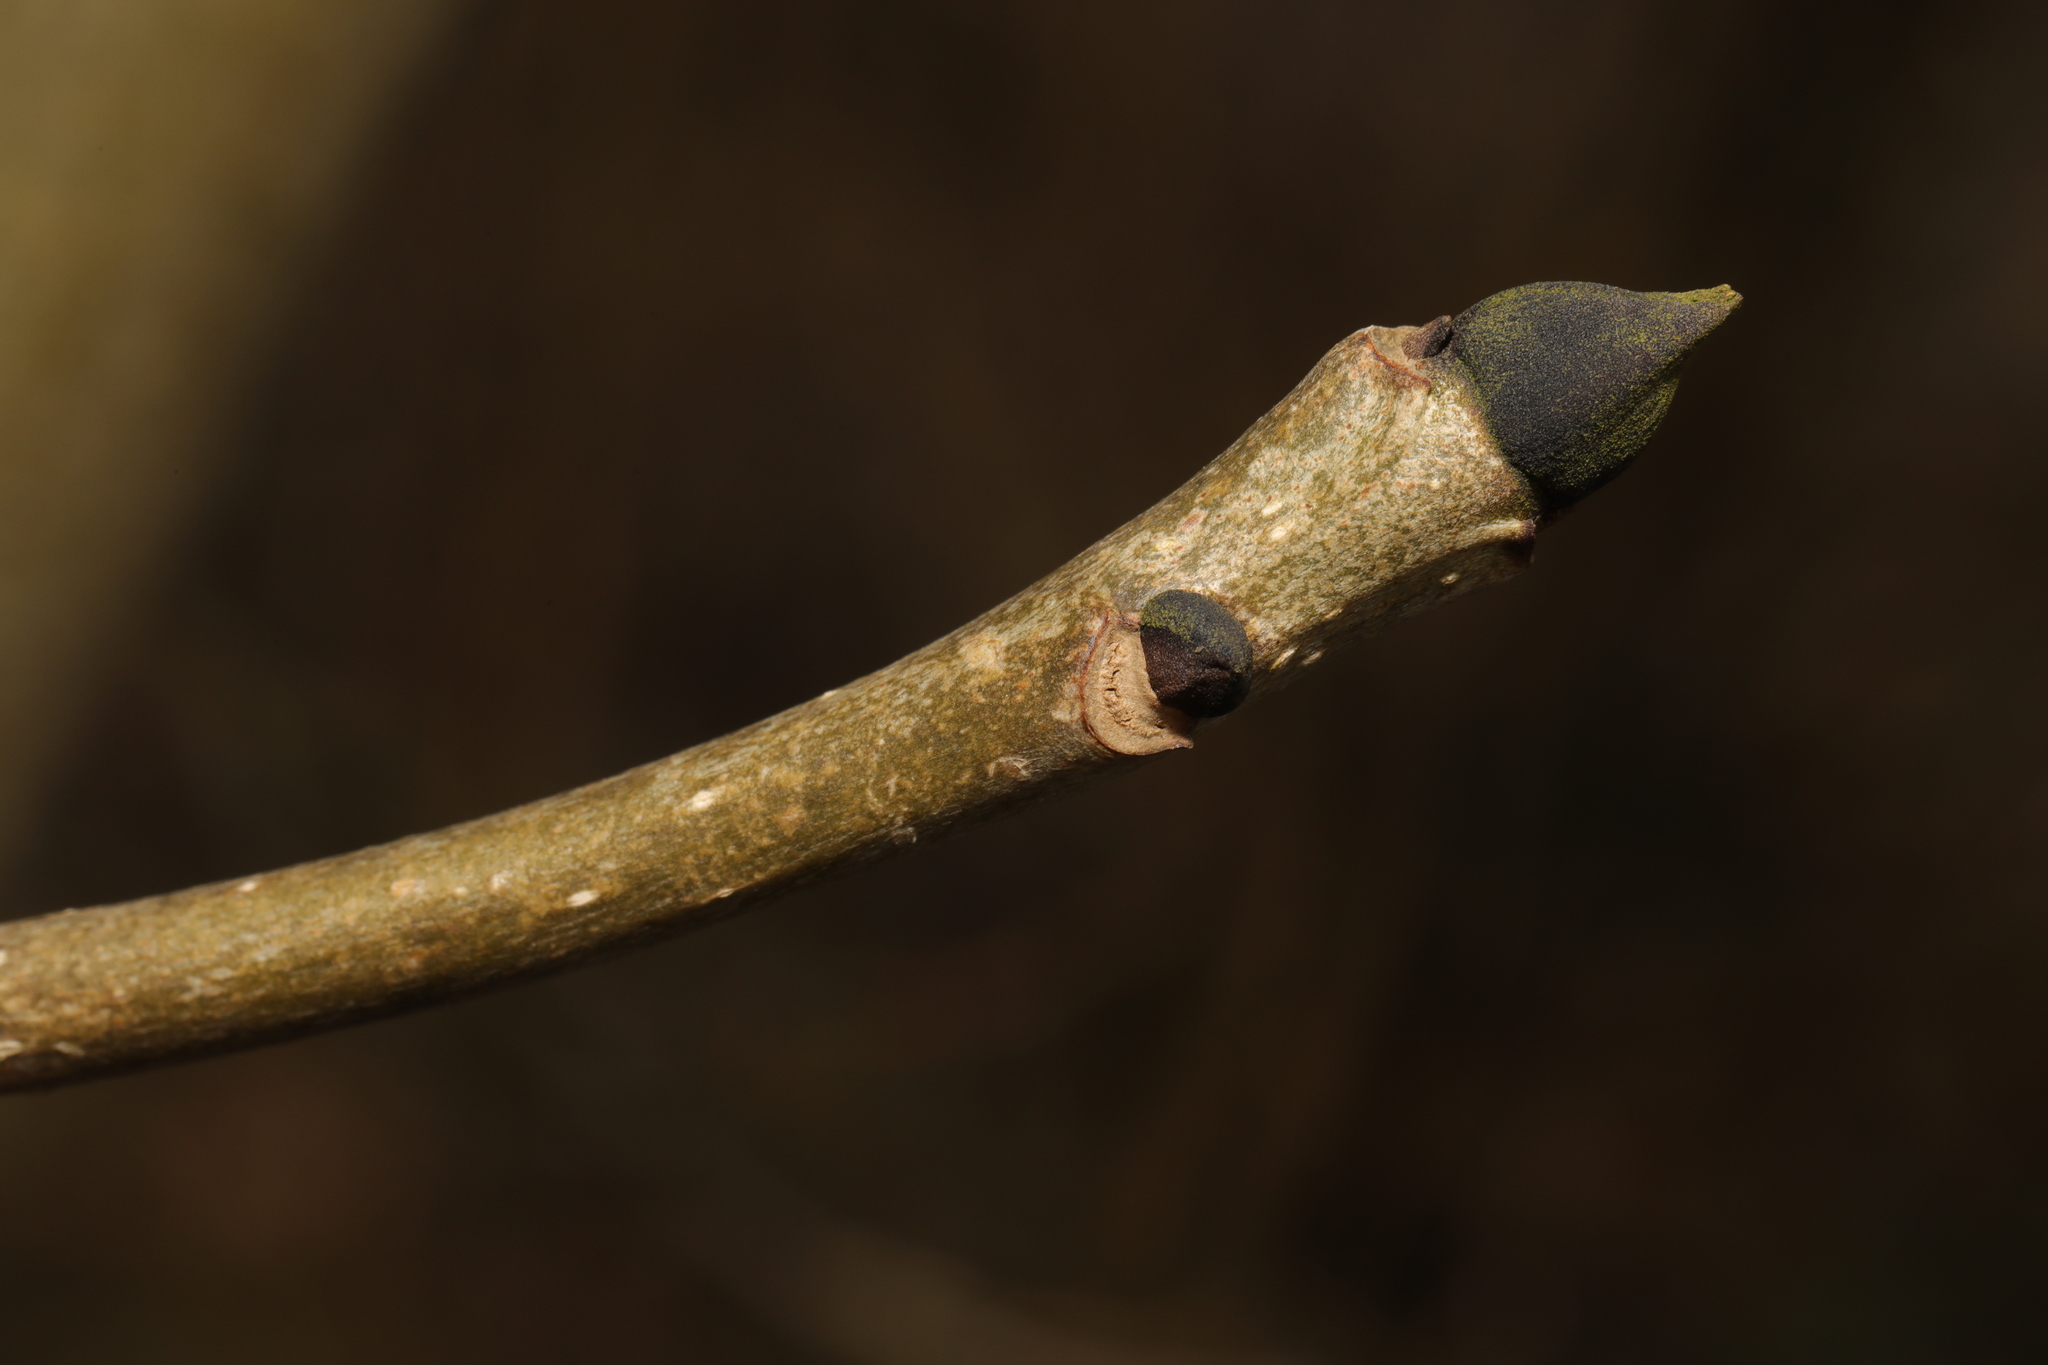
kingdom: Plantae
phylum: Tracheophyta
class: Magnoliopsida
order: Lamiales
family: Oleaceae
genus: Fraxinus
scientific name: Fraxinus excelsior
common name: European ash
